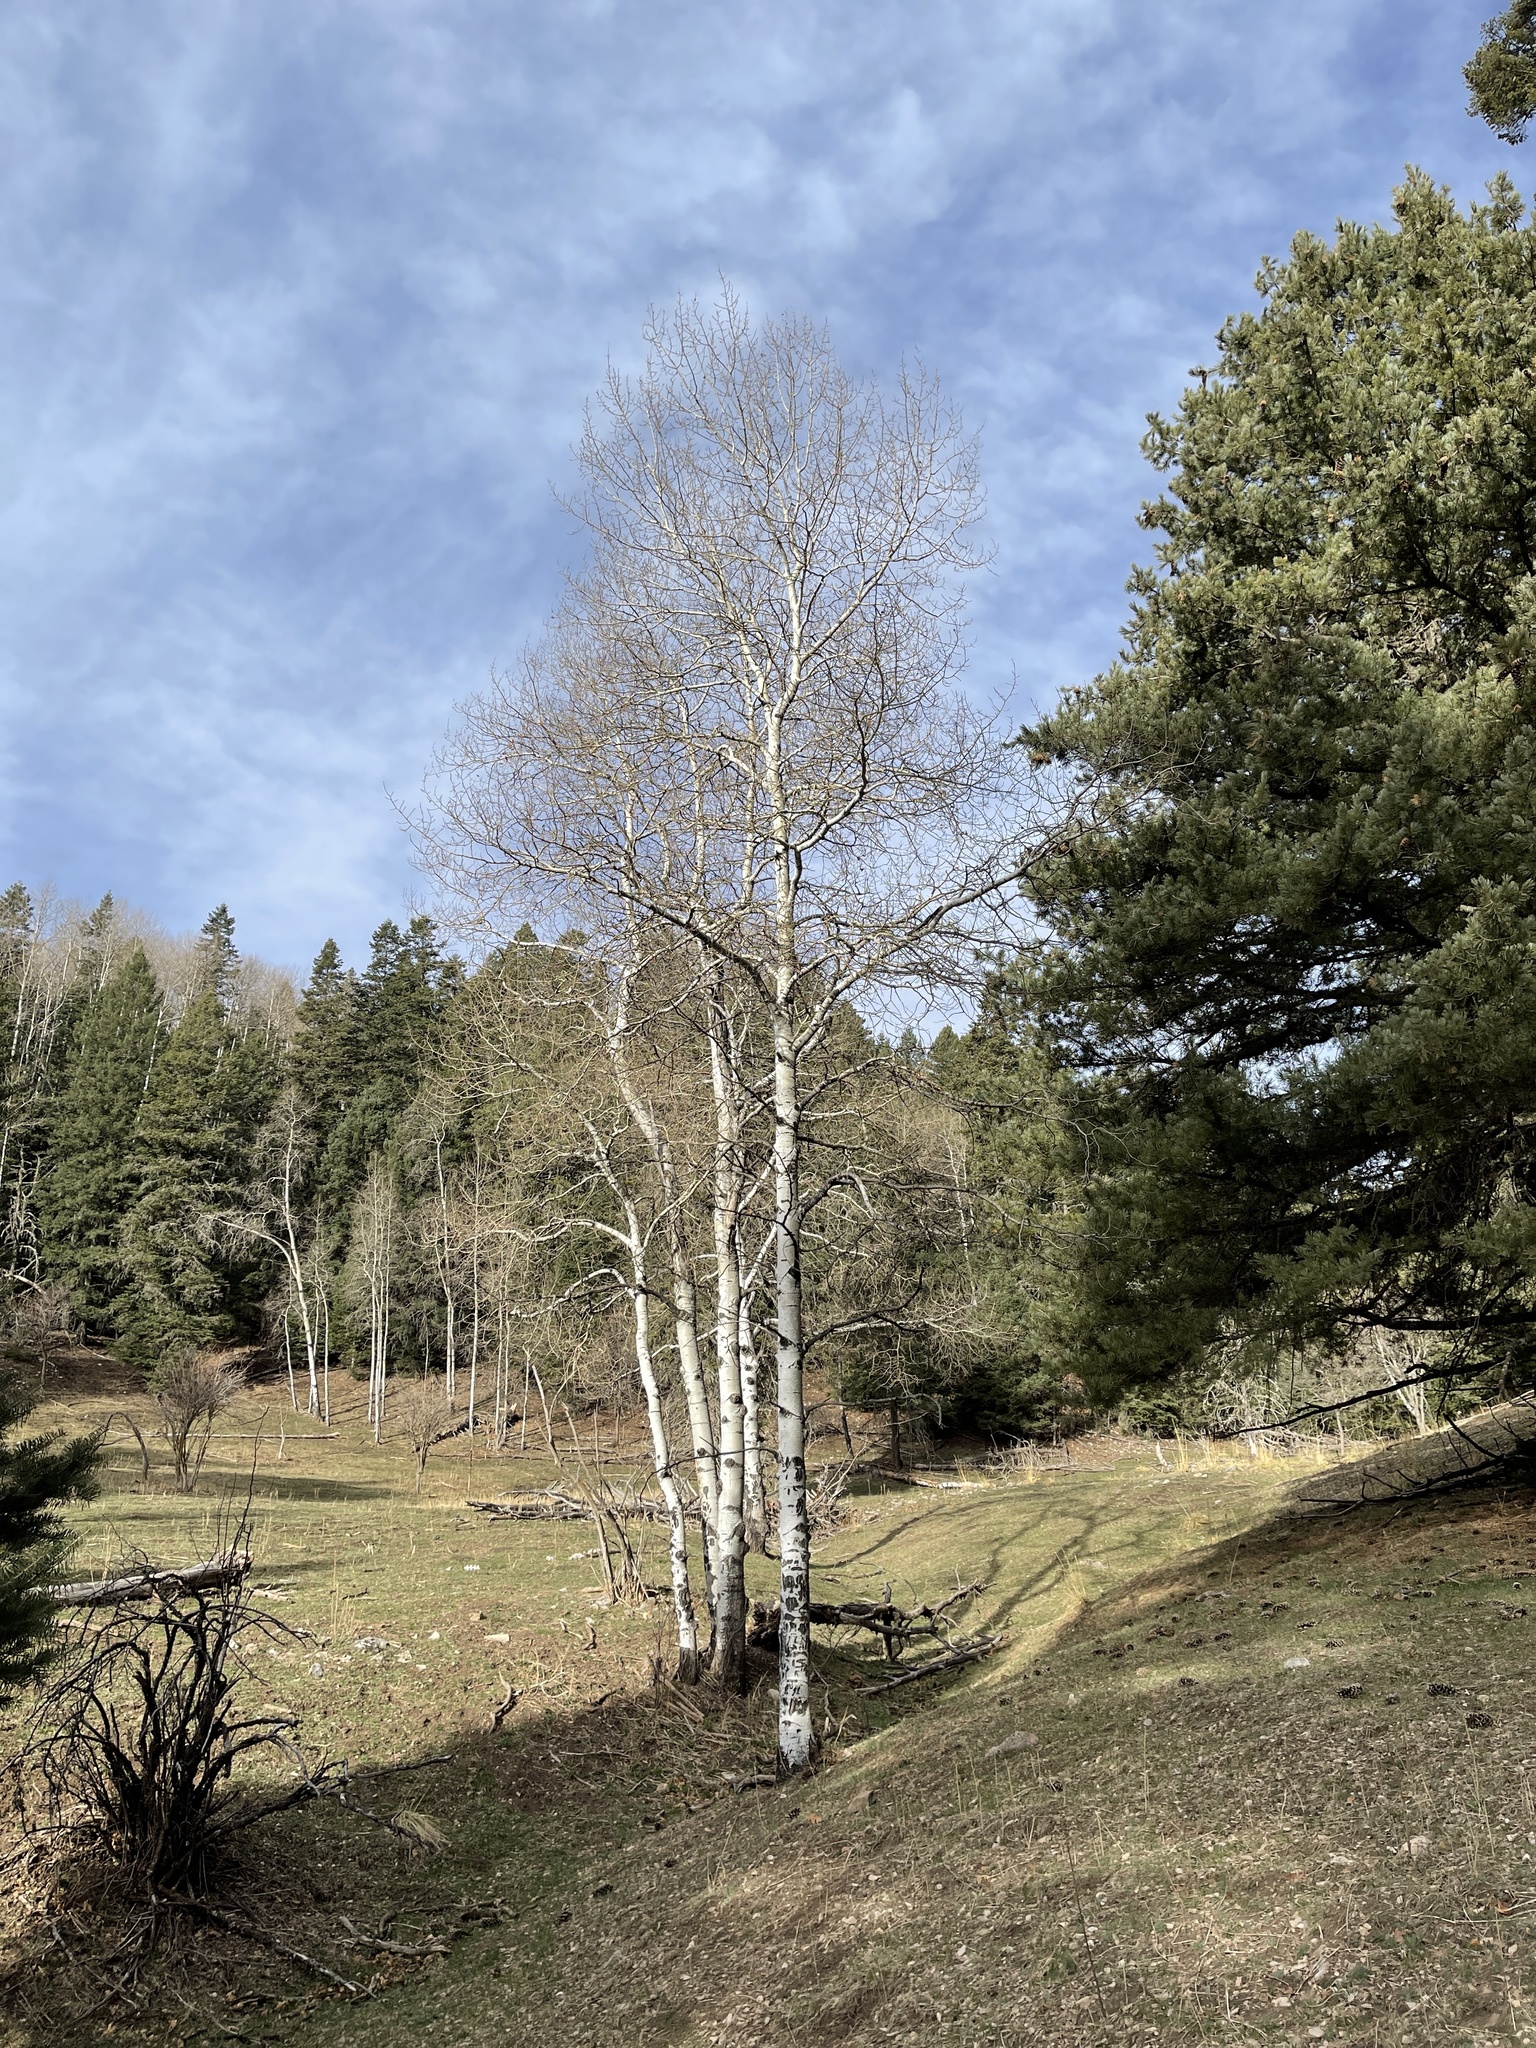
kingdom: Plantae
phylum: Tracheophyta
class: Magnoliopsida
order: Malpighiales
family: Salicaceae
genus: Populus
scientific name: Populus tremuloides
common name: Quaking aspen
